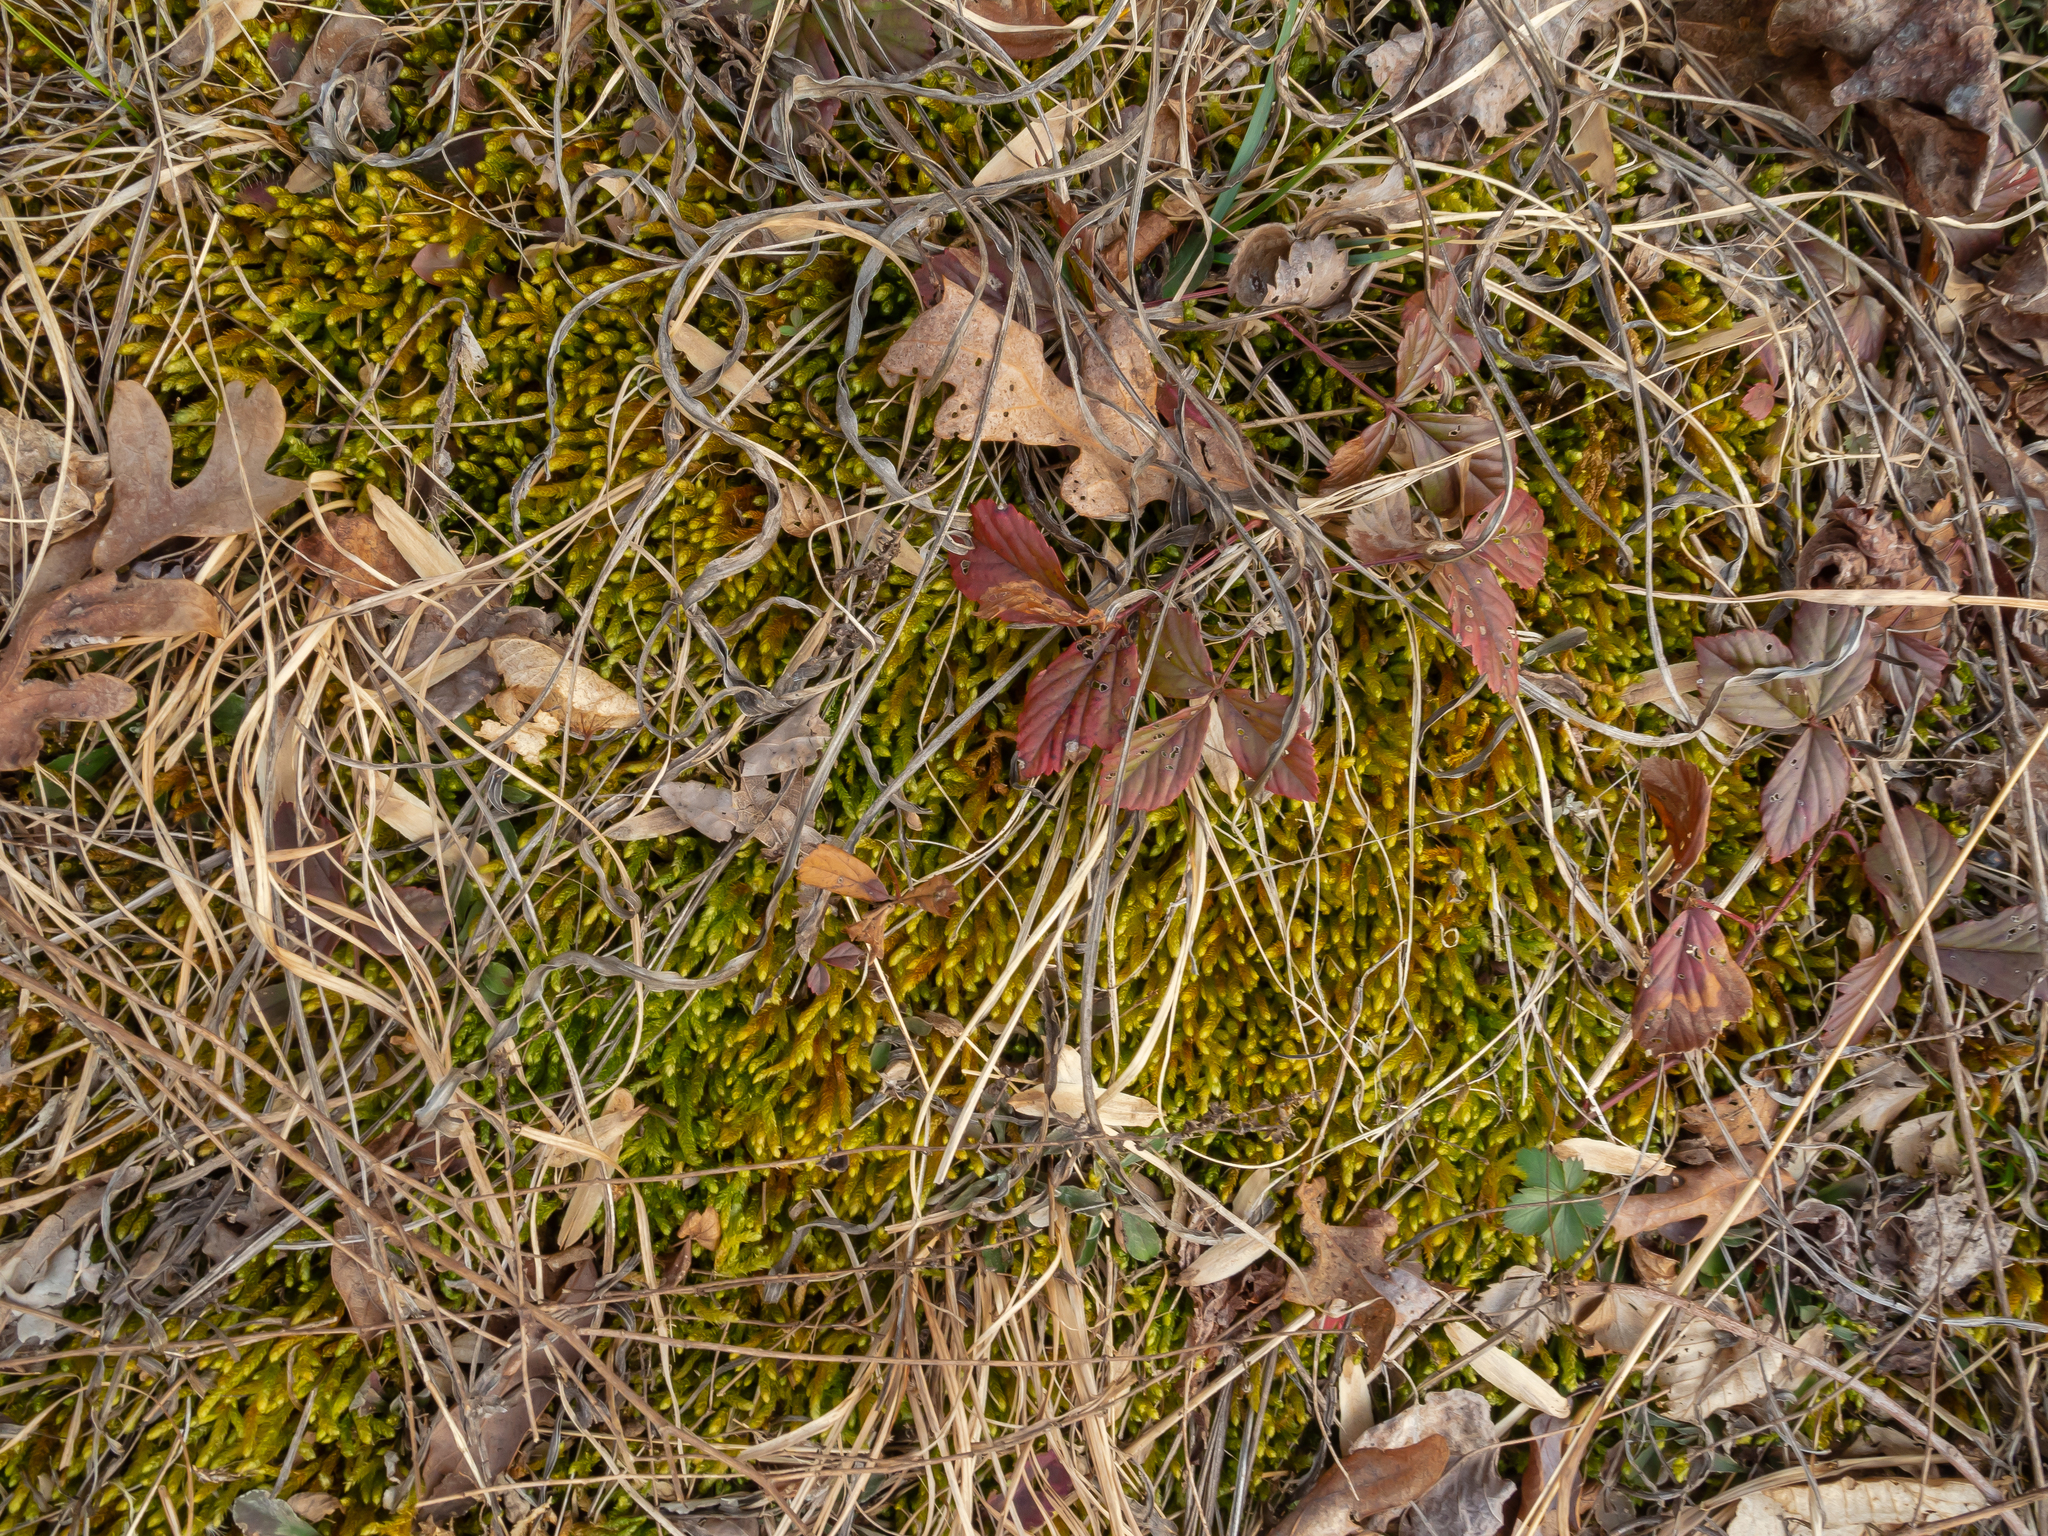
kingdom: Plantae
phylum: Bryophyta
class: Bryopsida
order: Hypnales
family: Brachytheciaceae
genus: Bryoandersonia
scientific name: Bryoandersonia illecebra
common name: Spoon-leaved moss
